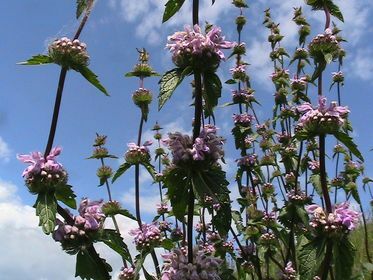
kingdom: Plantae
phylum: Tracheophyta
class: Magnoliopsida
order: Lamiales
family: Lamiaceae
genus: Phlomoides
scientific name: Phlomoides tuberosa
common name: Tuberous jerusalem sage
